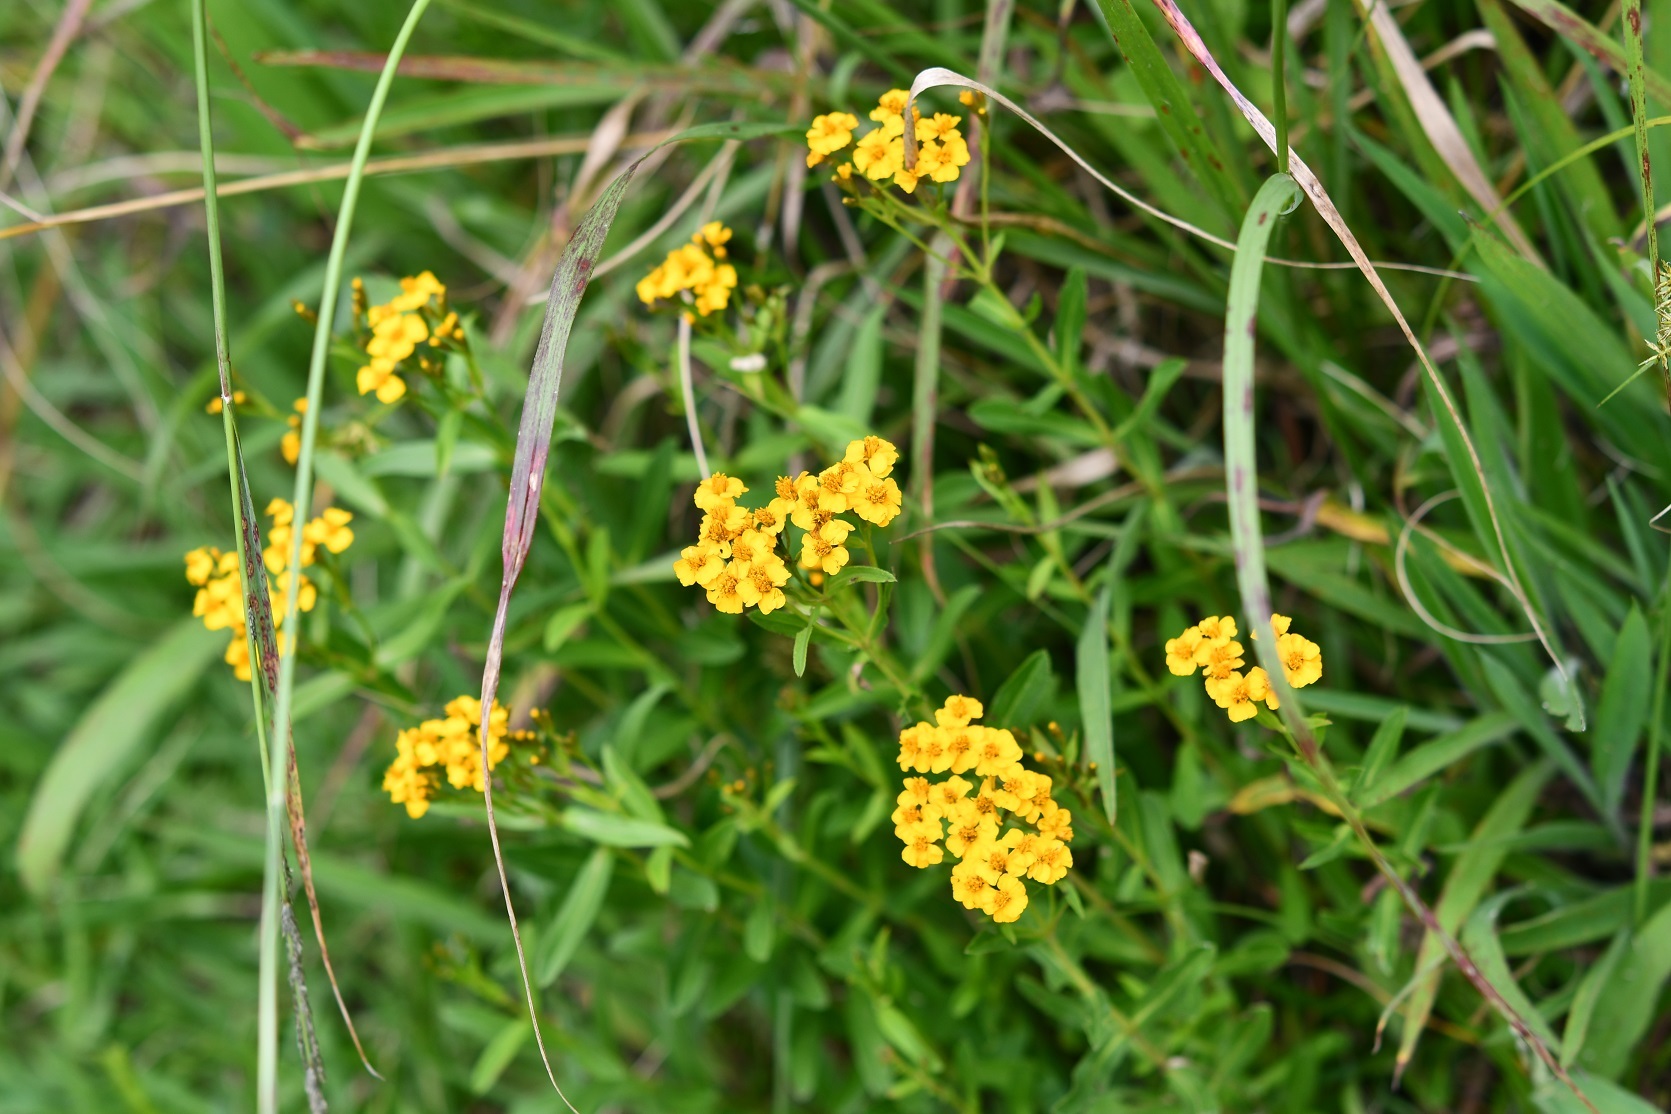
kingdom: Plantae
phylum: Tracheophyta
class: Magnoliopsida
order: Asterales
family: Asteraceae
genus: Tagetes
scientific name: Tagetes lucida
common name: Sweetscented marigold
